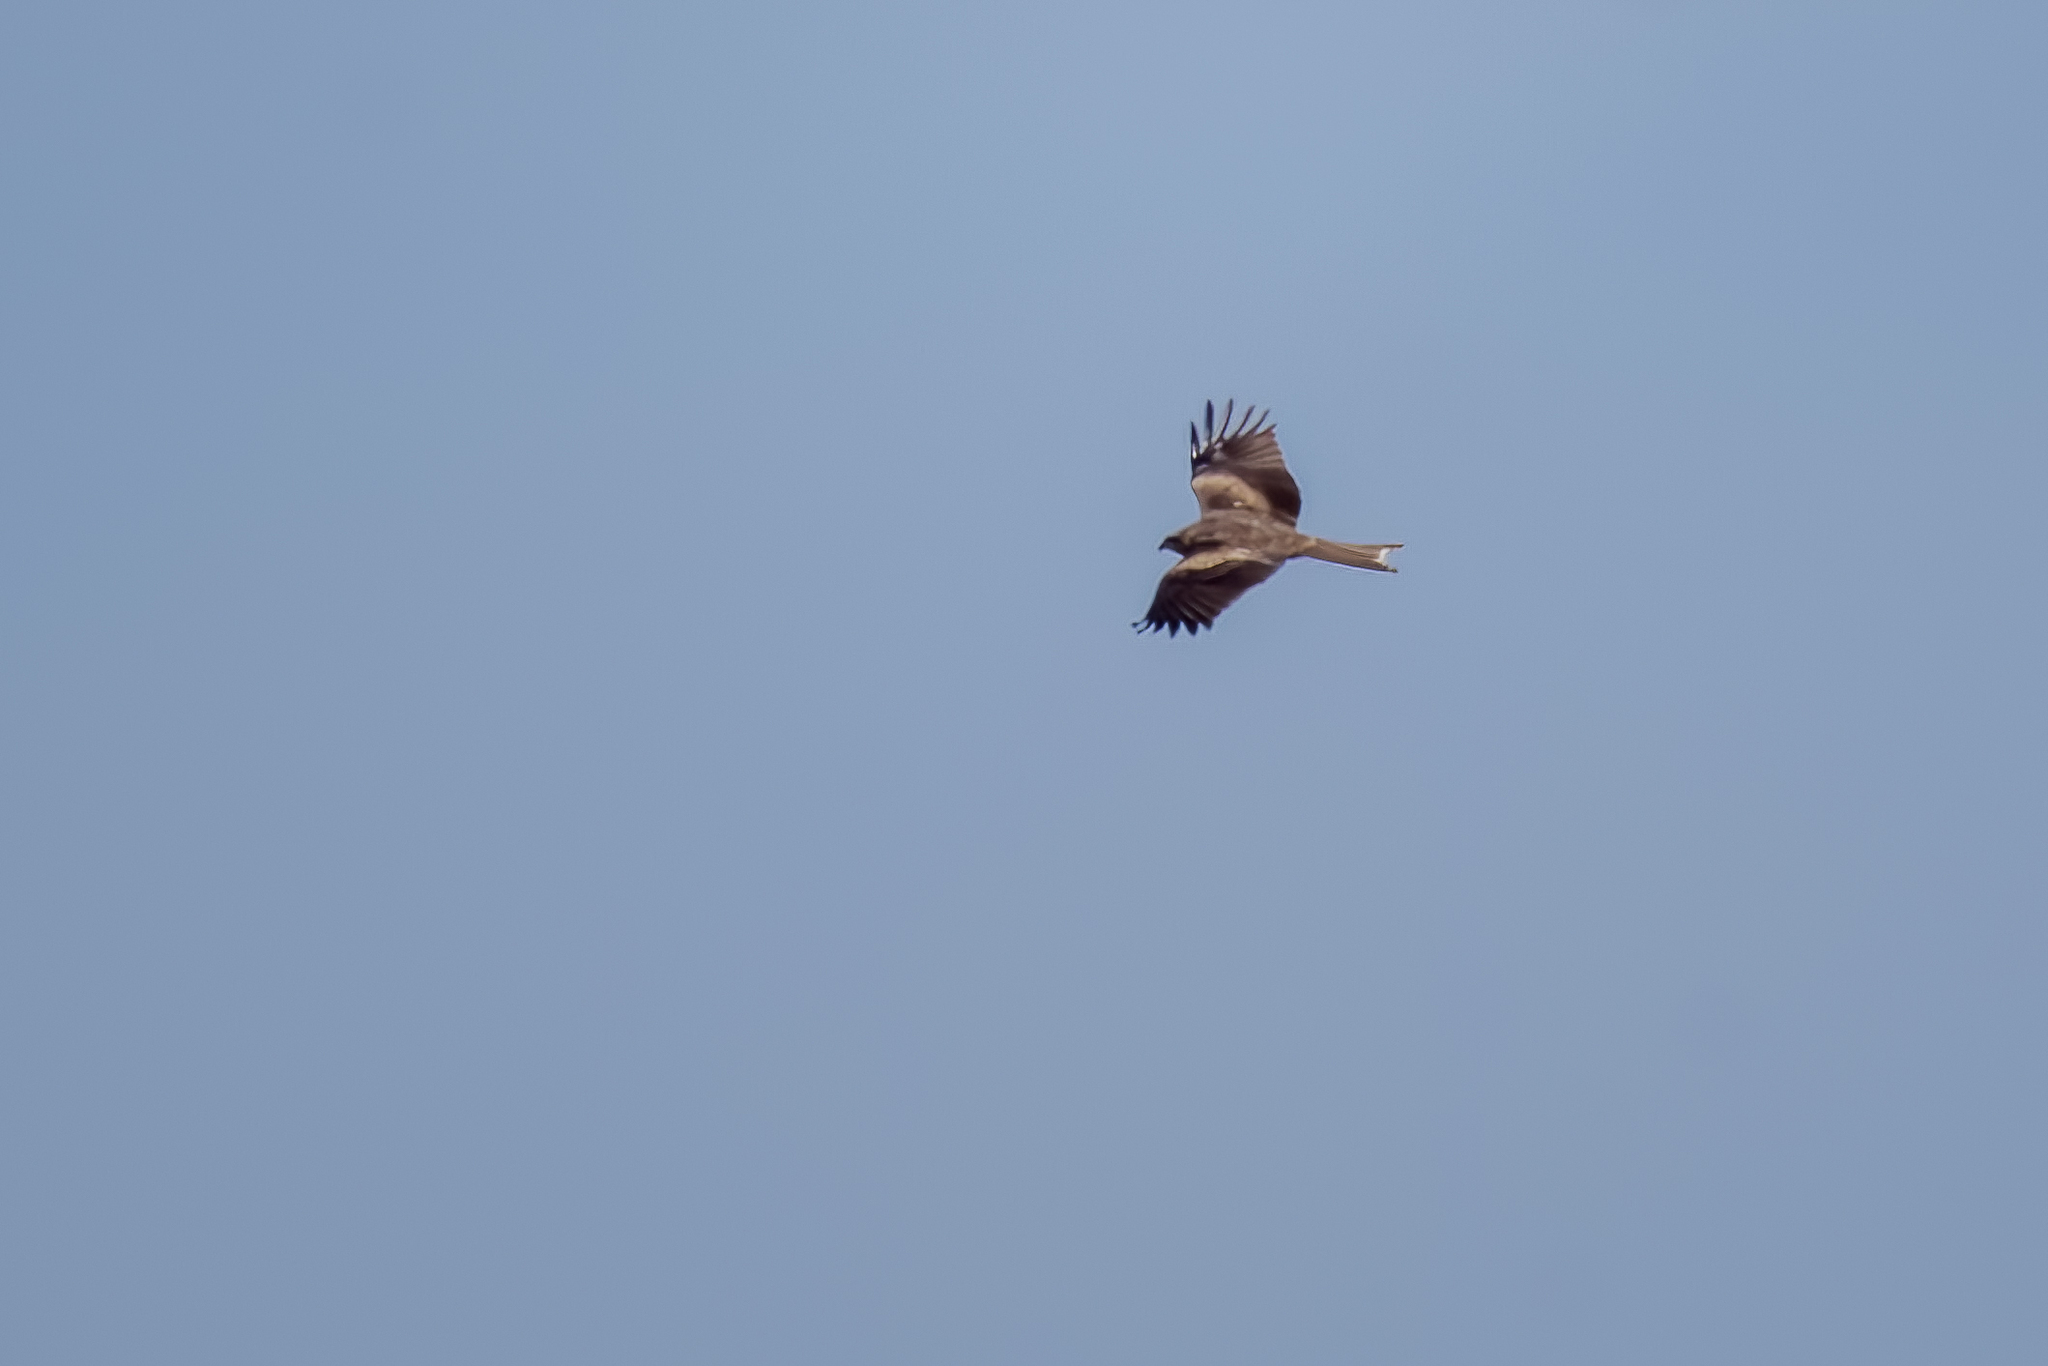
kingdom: Animalia
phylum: Chordata
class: Aves
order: Accipitriformes
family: Accipitridae
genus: Milvus
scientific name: Milvus migrans
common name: Black kite
